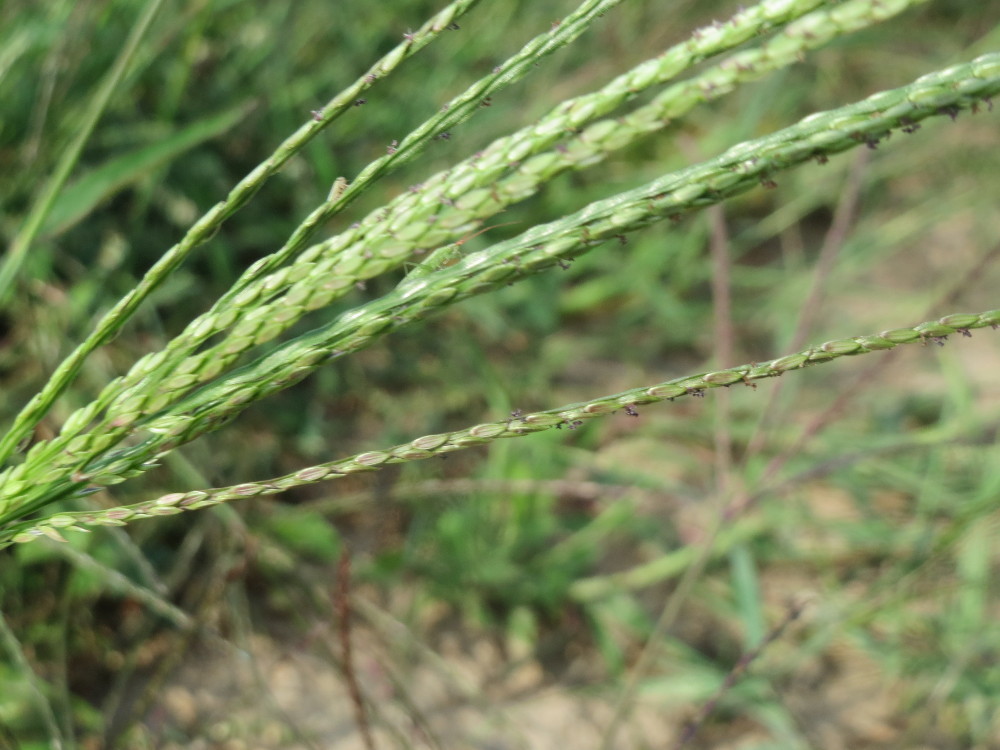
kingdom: Plantae
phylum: Tracheophyta
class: Liliopsida
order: Poales
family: Poaceae
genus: Digitaria
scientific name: Digitaria sanguinalis
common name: Hairy crabgrass
